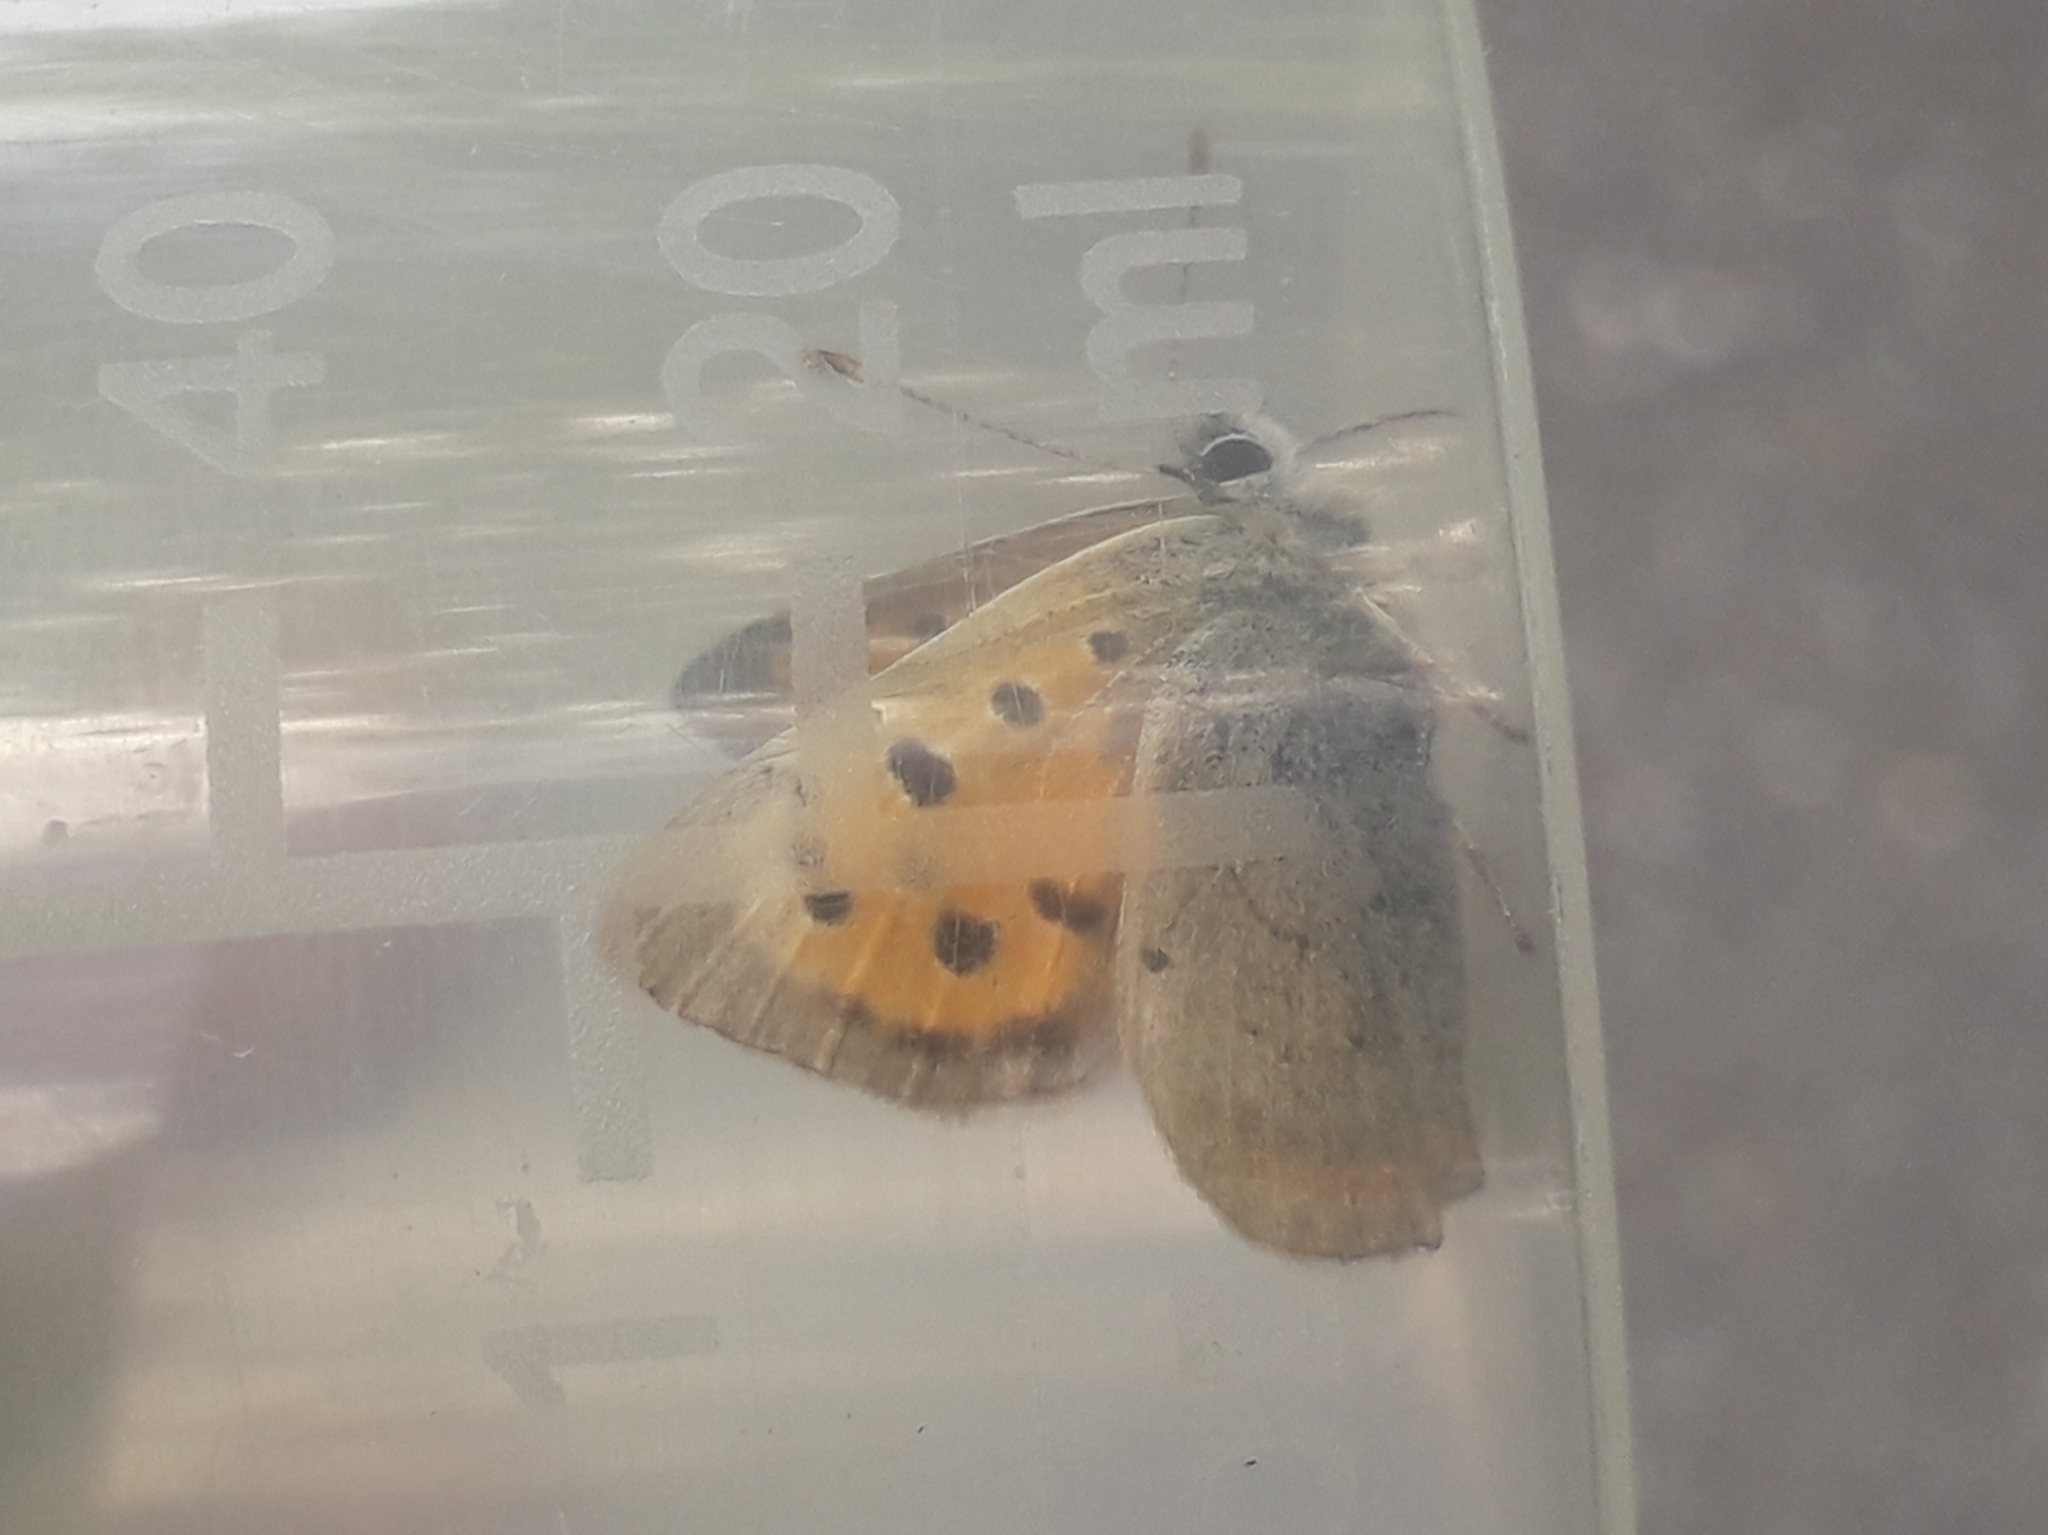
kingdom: Animalia
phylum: Arthropoda
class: Insecta
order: Lepidoptera
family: Lycaenidae
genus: Lycaena
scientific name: Lycaena phlaeas
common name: Small copper
